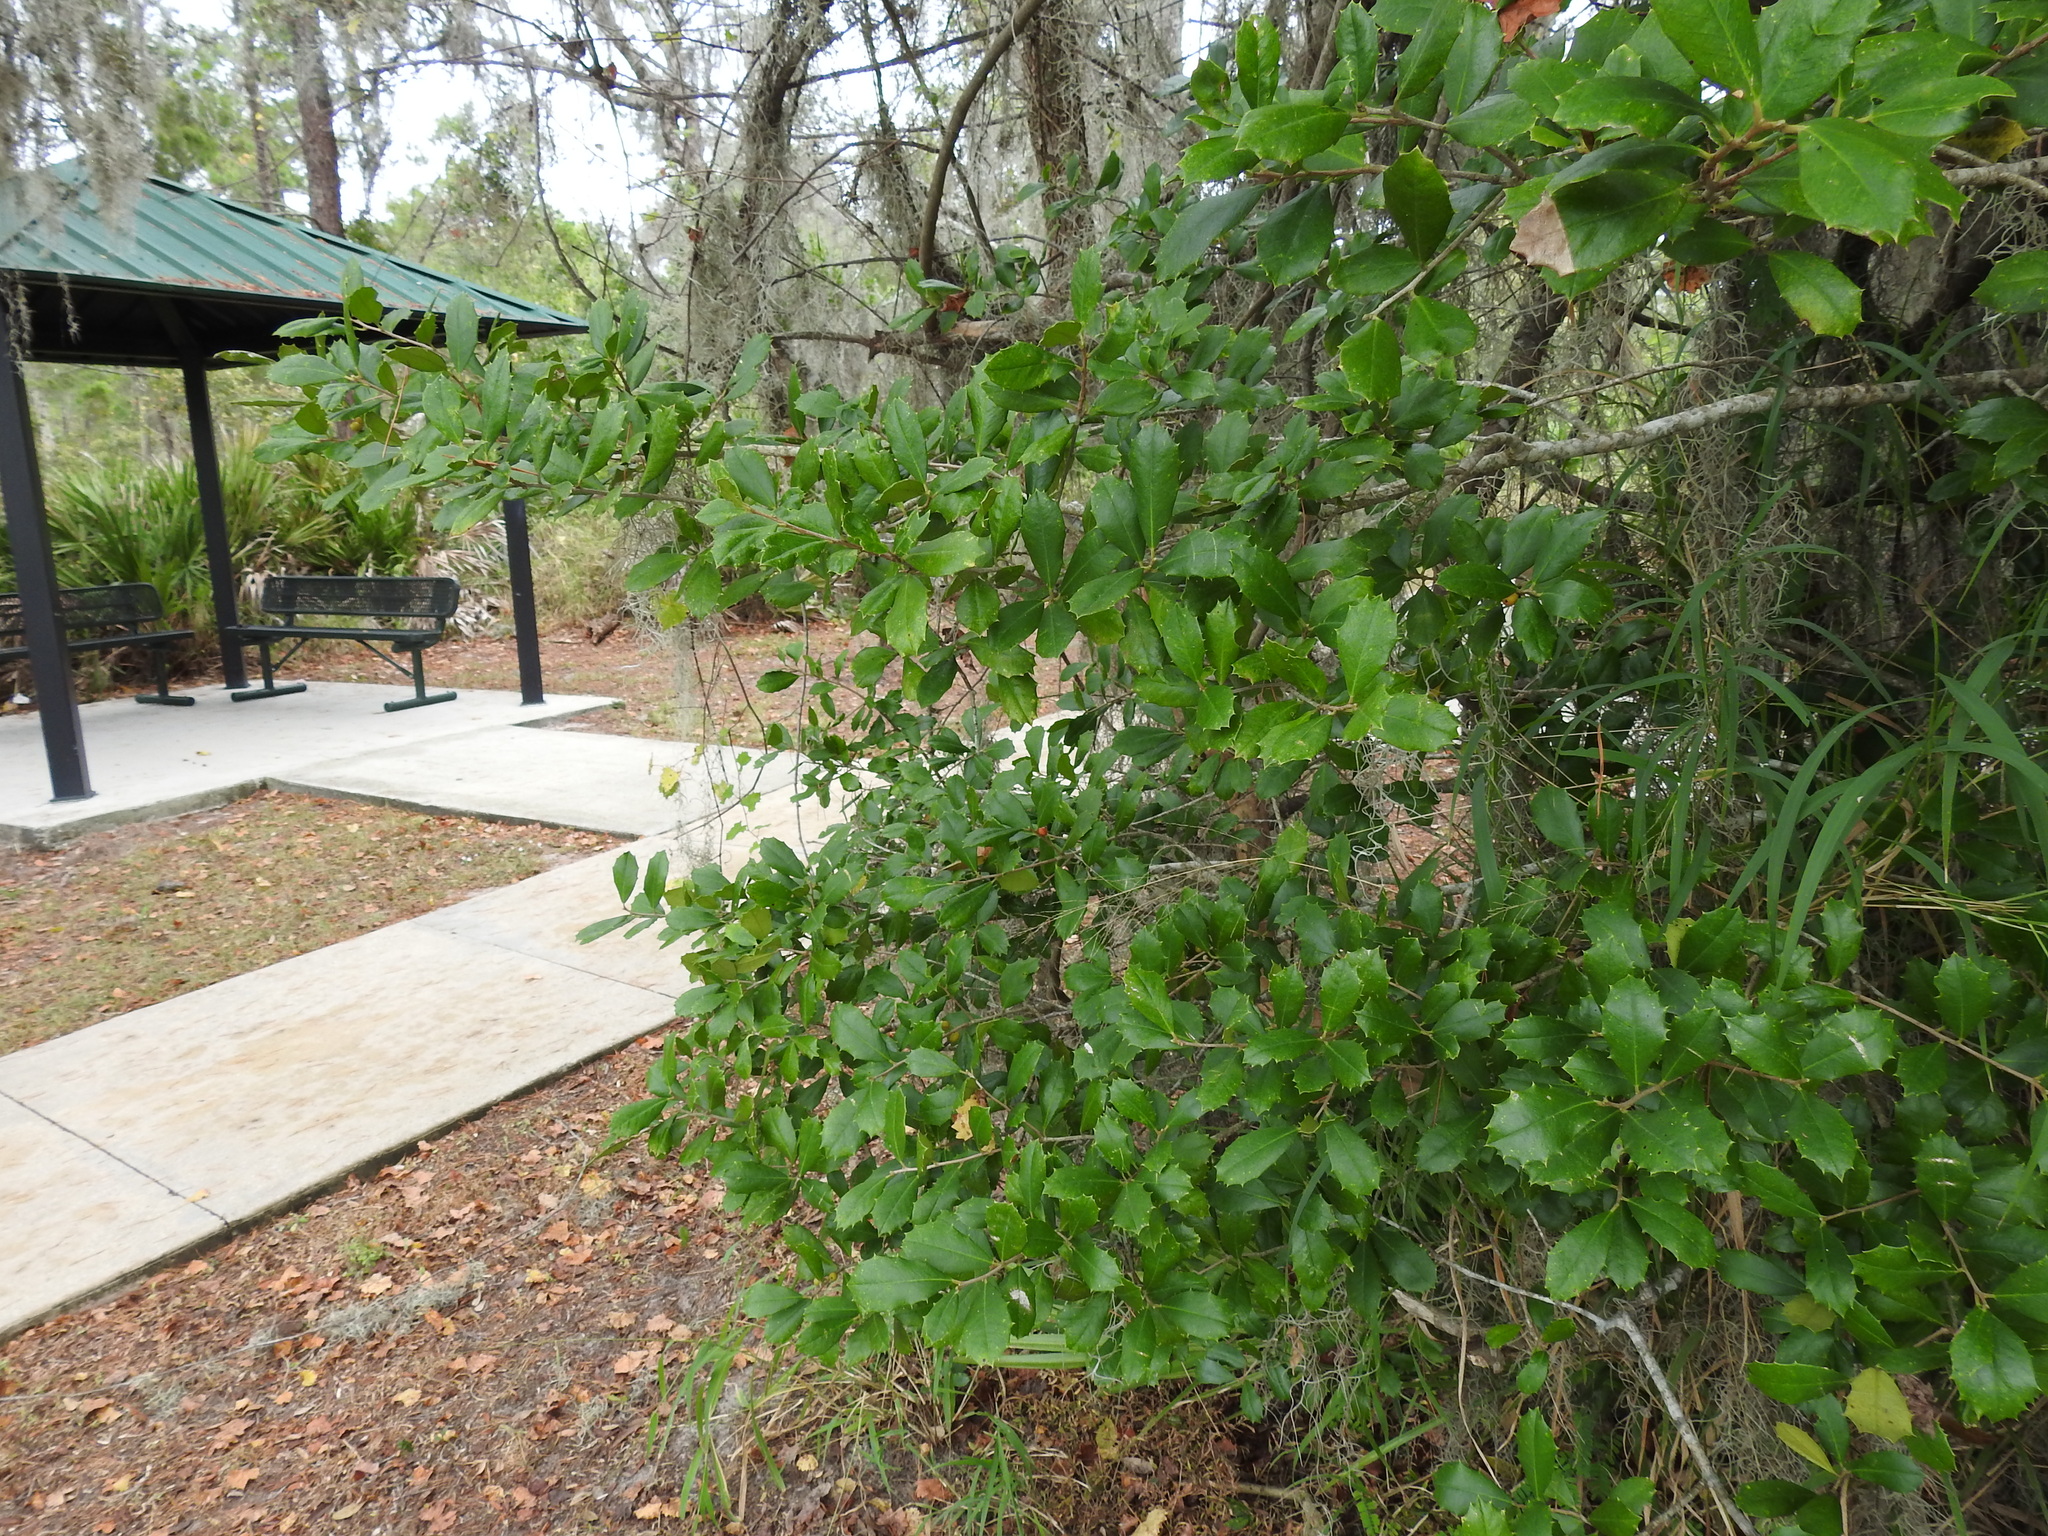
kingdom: Plantae
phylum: Tracheophyta
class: Magnoliopsida
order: Aquifoliales
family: Aquifoliaceae
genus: Ilex
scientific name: Ilex opaca
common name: American holly
